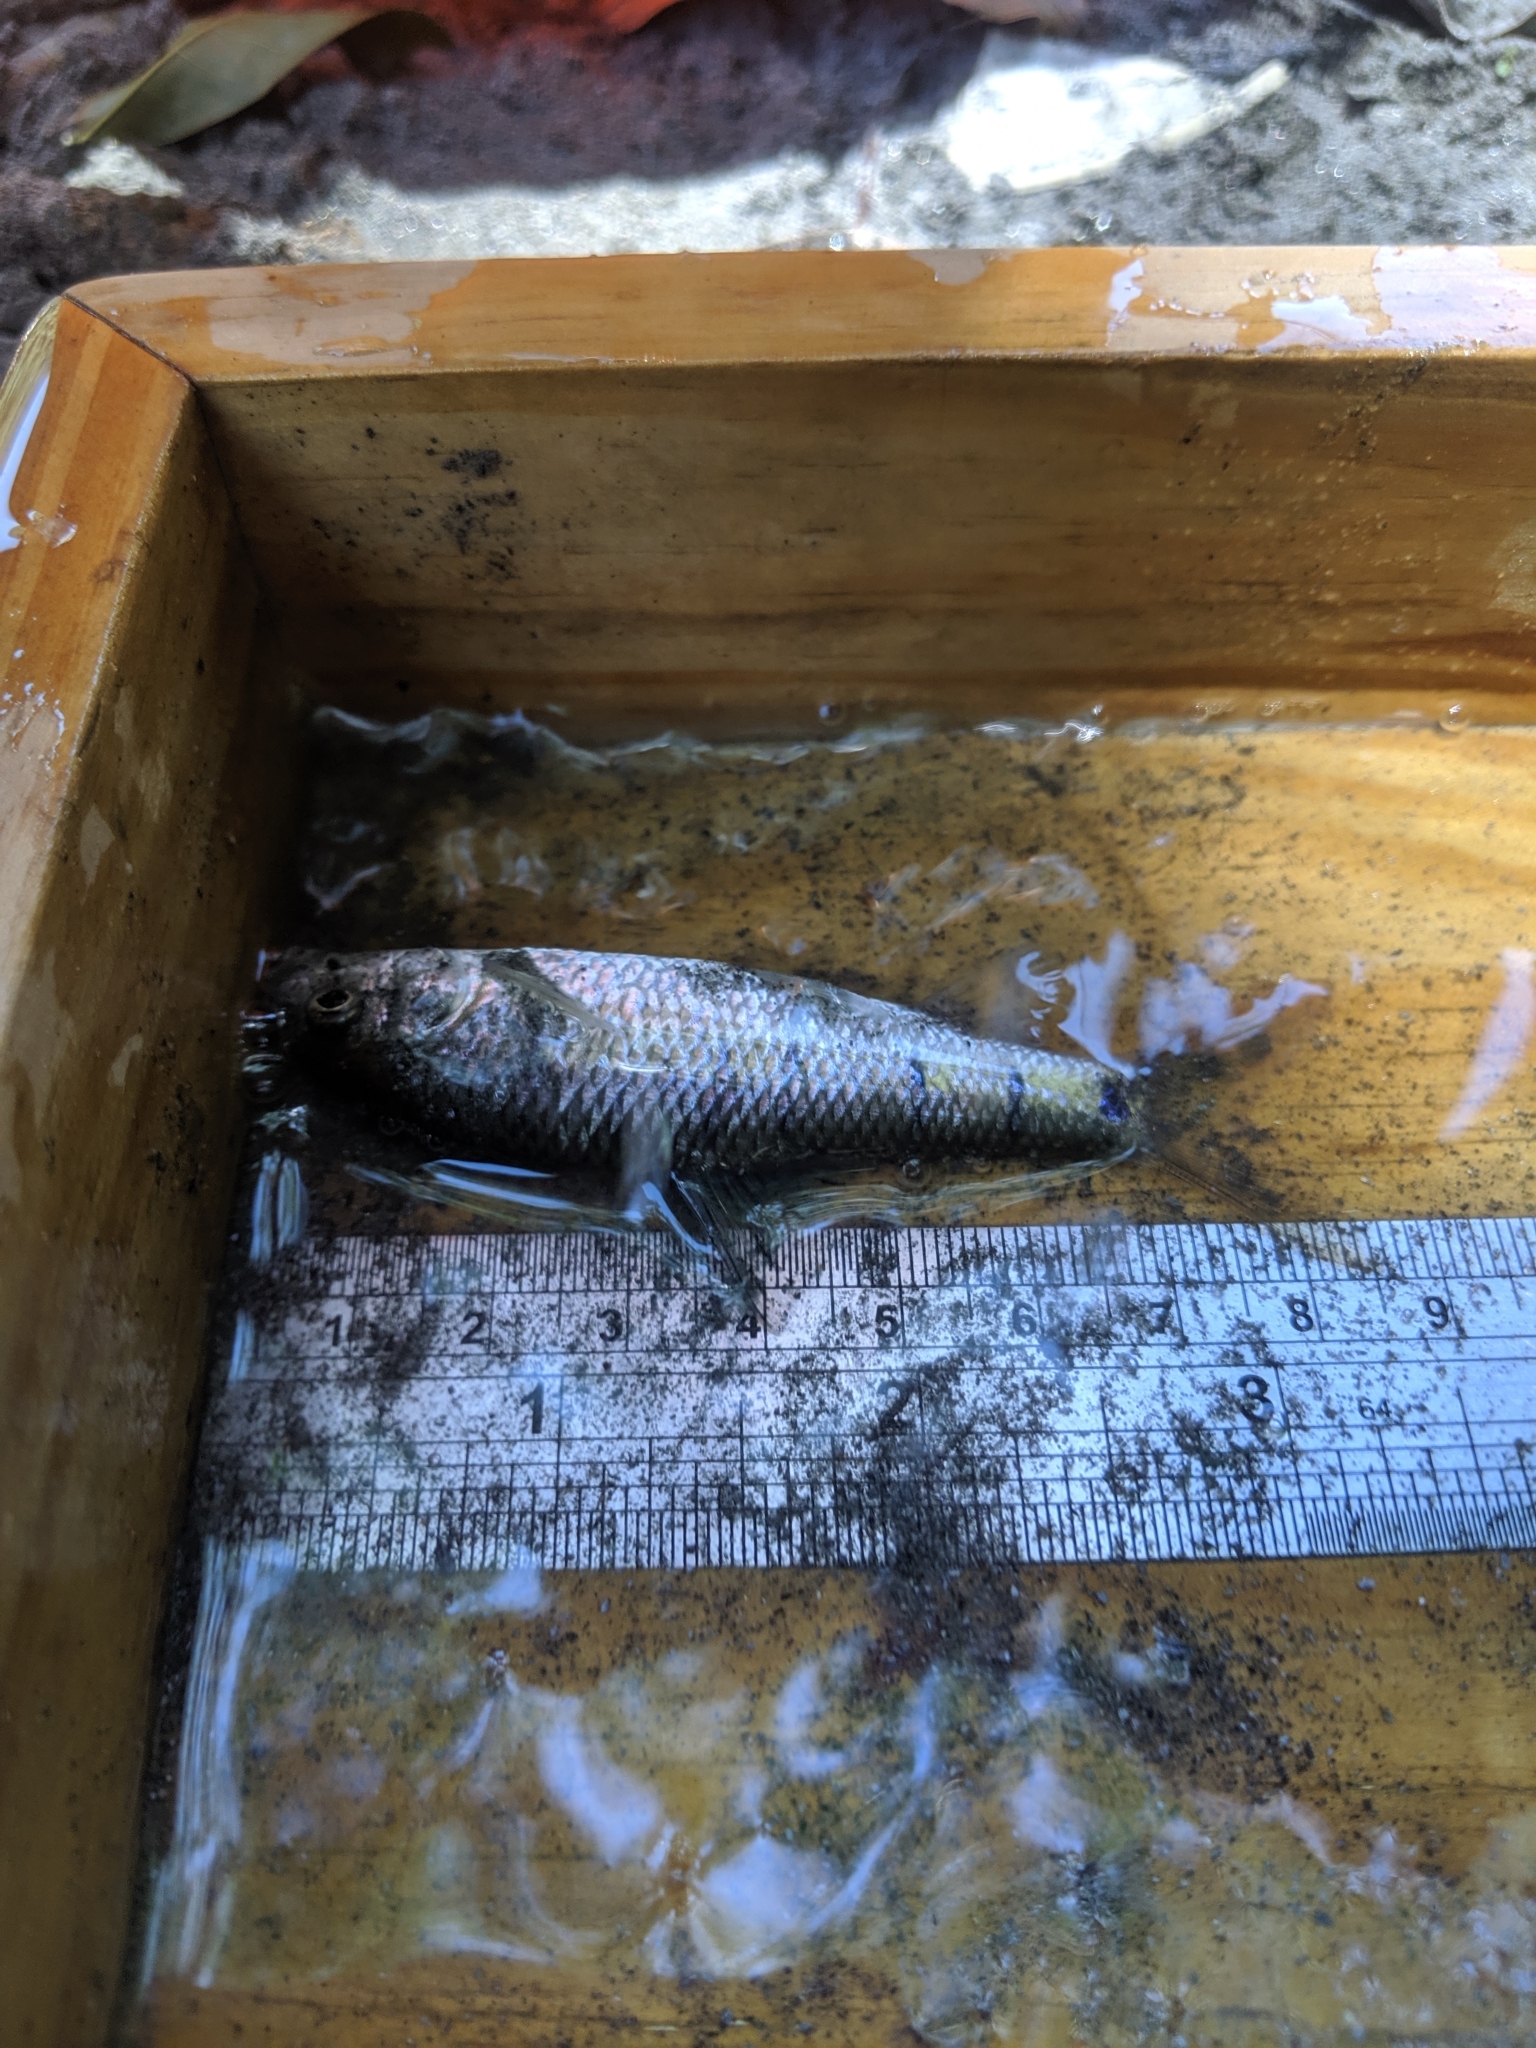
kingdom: Animalia
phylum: Chordata
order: Cypriniformes
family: Cyprinidae
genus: Acrossocheilus
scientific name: Acrossocheilus paradoxus
